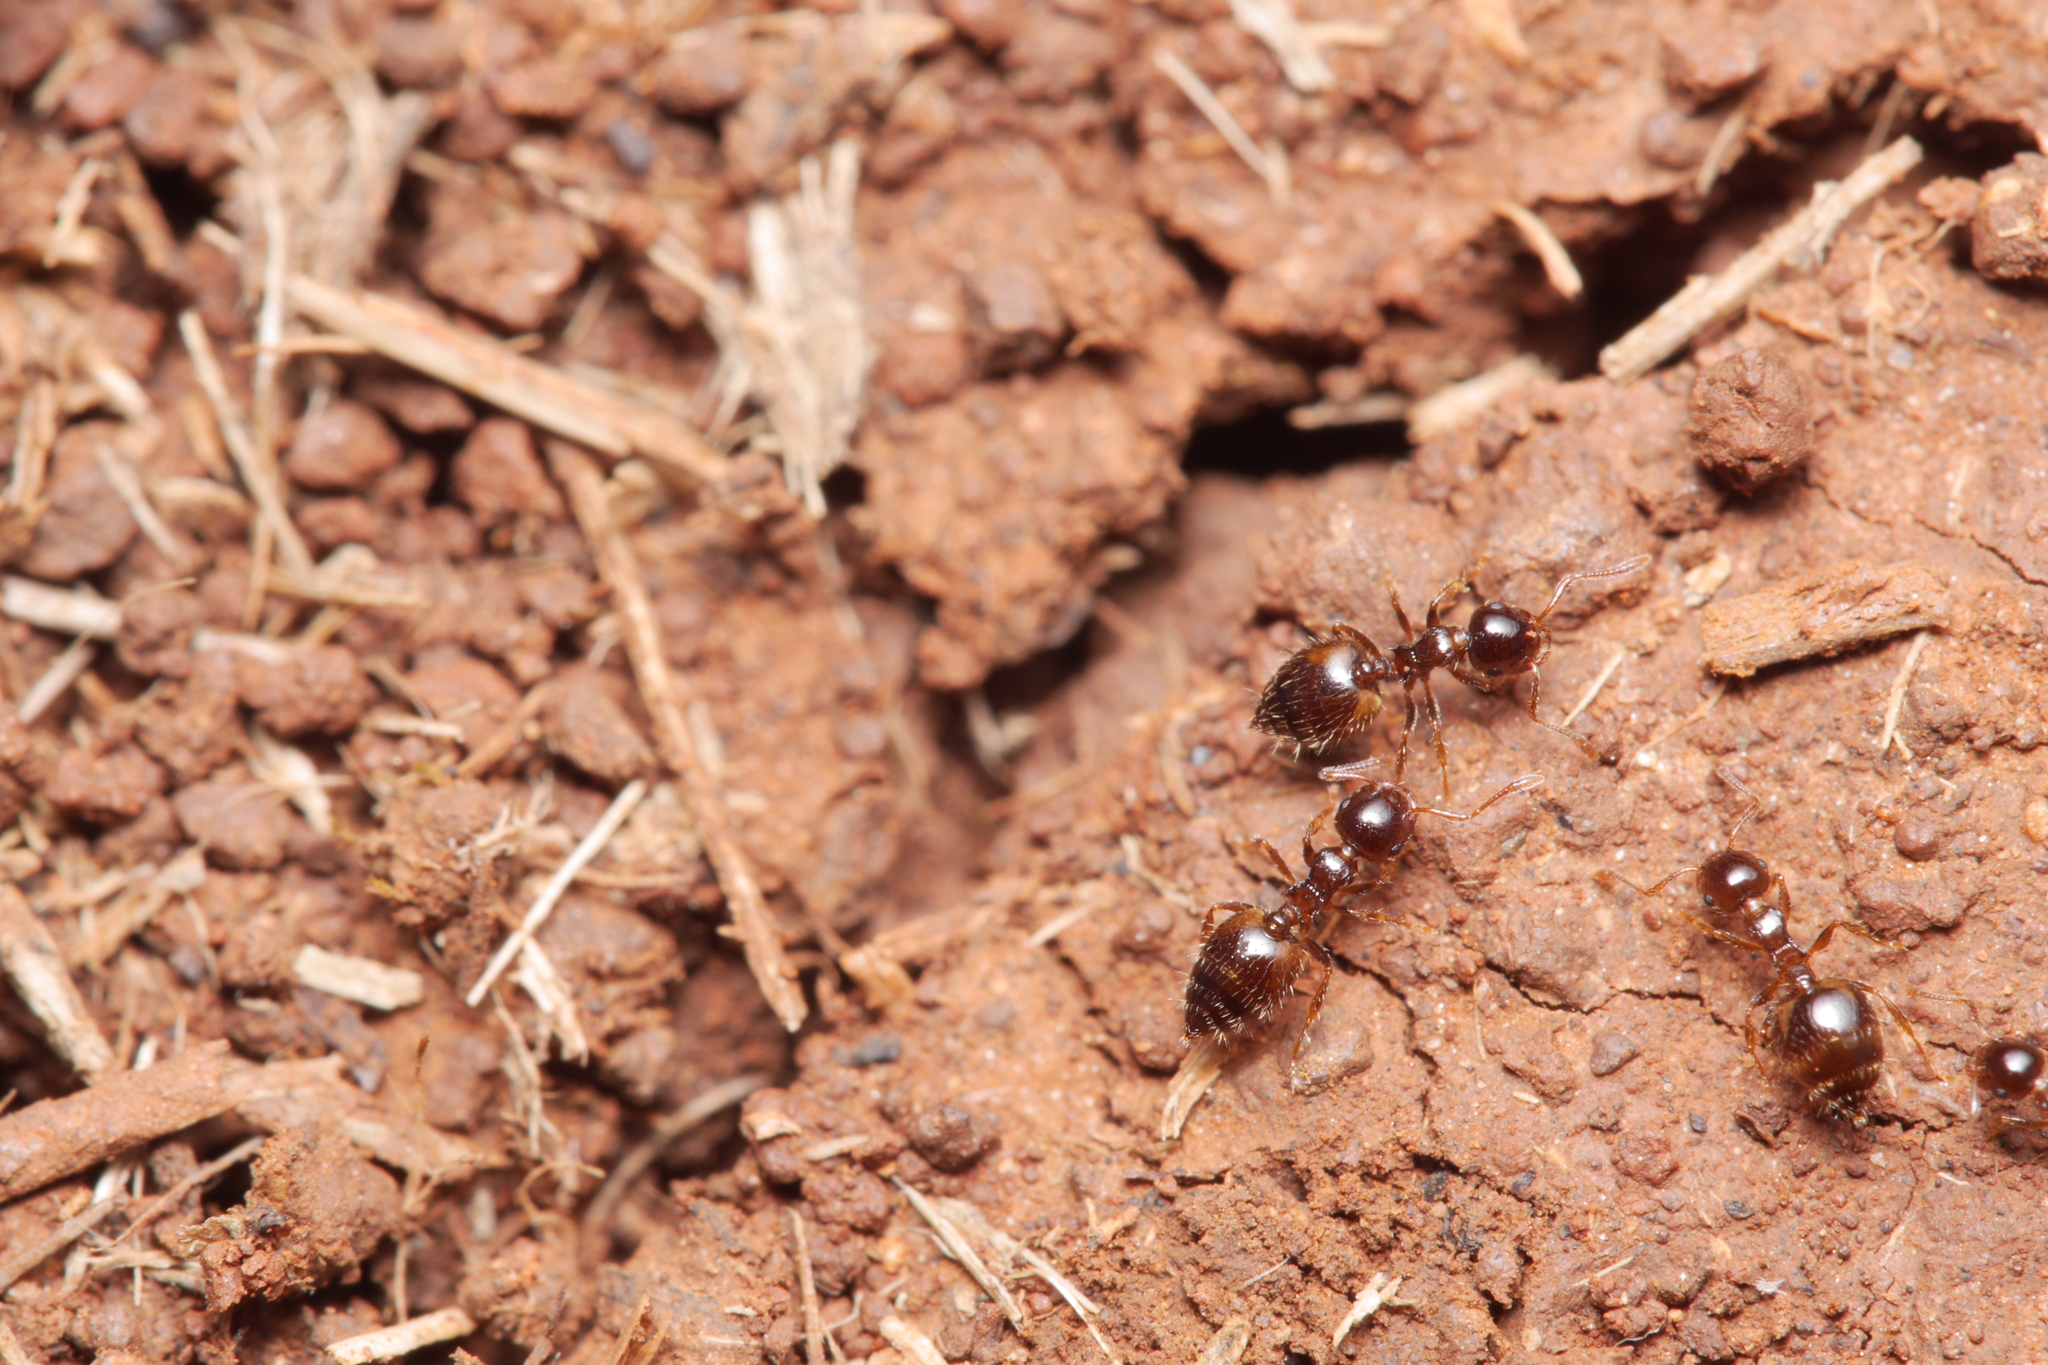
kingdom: Animalia
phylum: Arthropoda
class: Insecta
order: Hymenoptera
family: Formicidae
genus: Crematogaster
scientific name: Crematogaster sordidula
